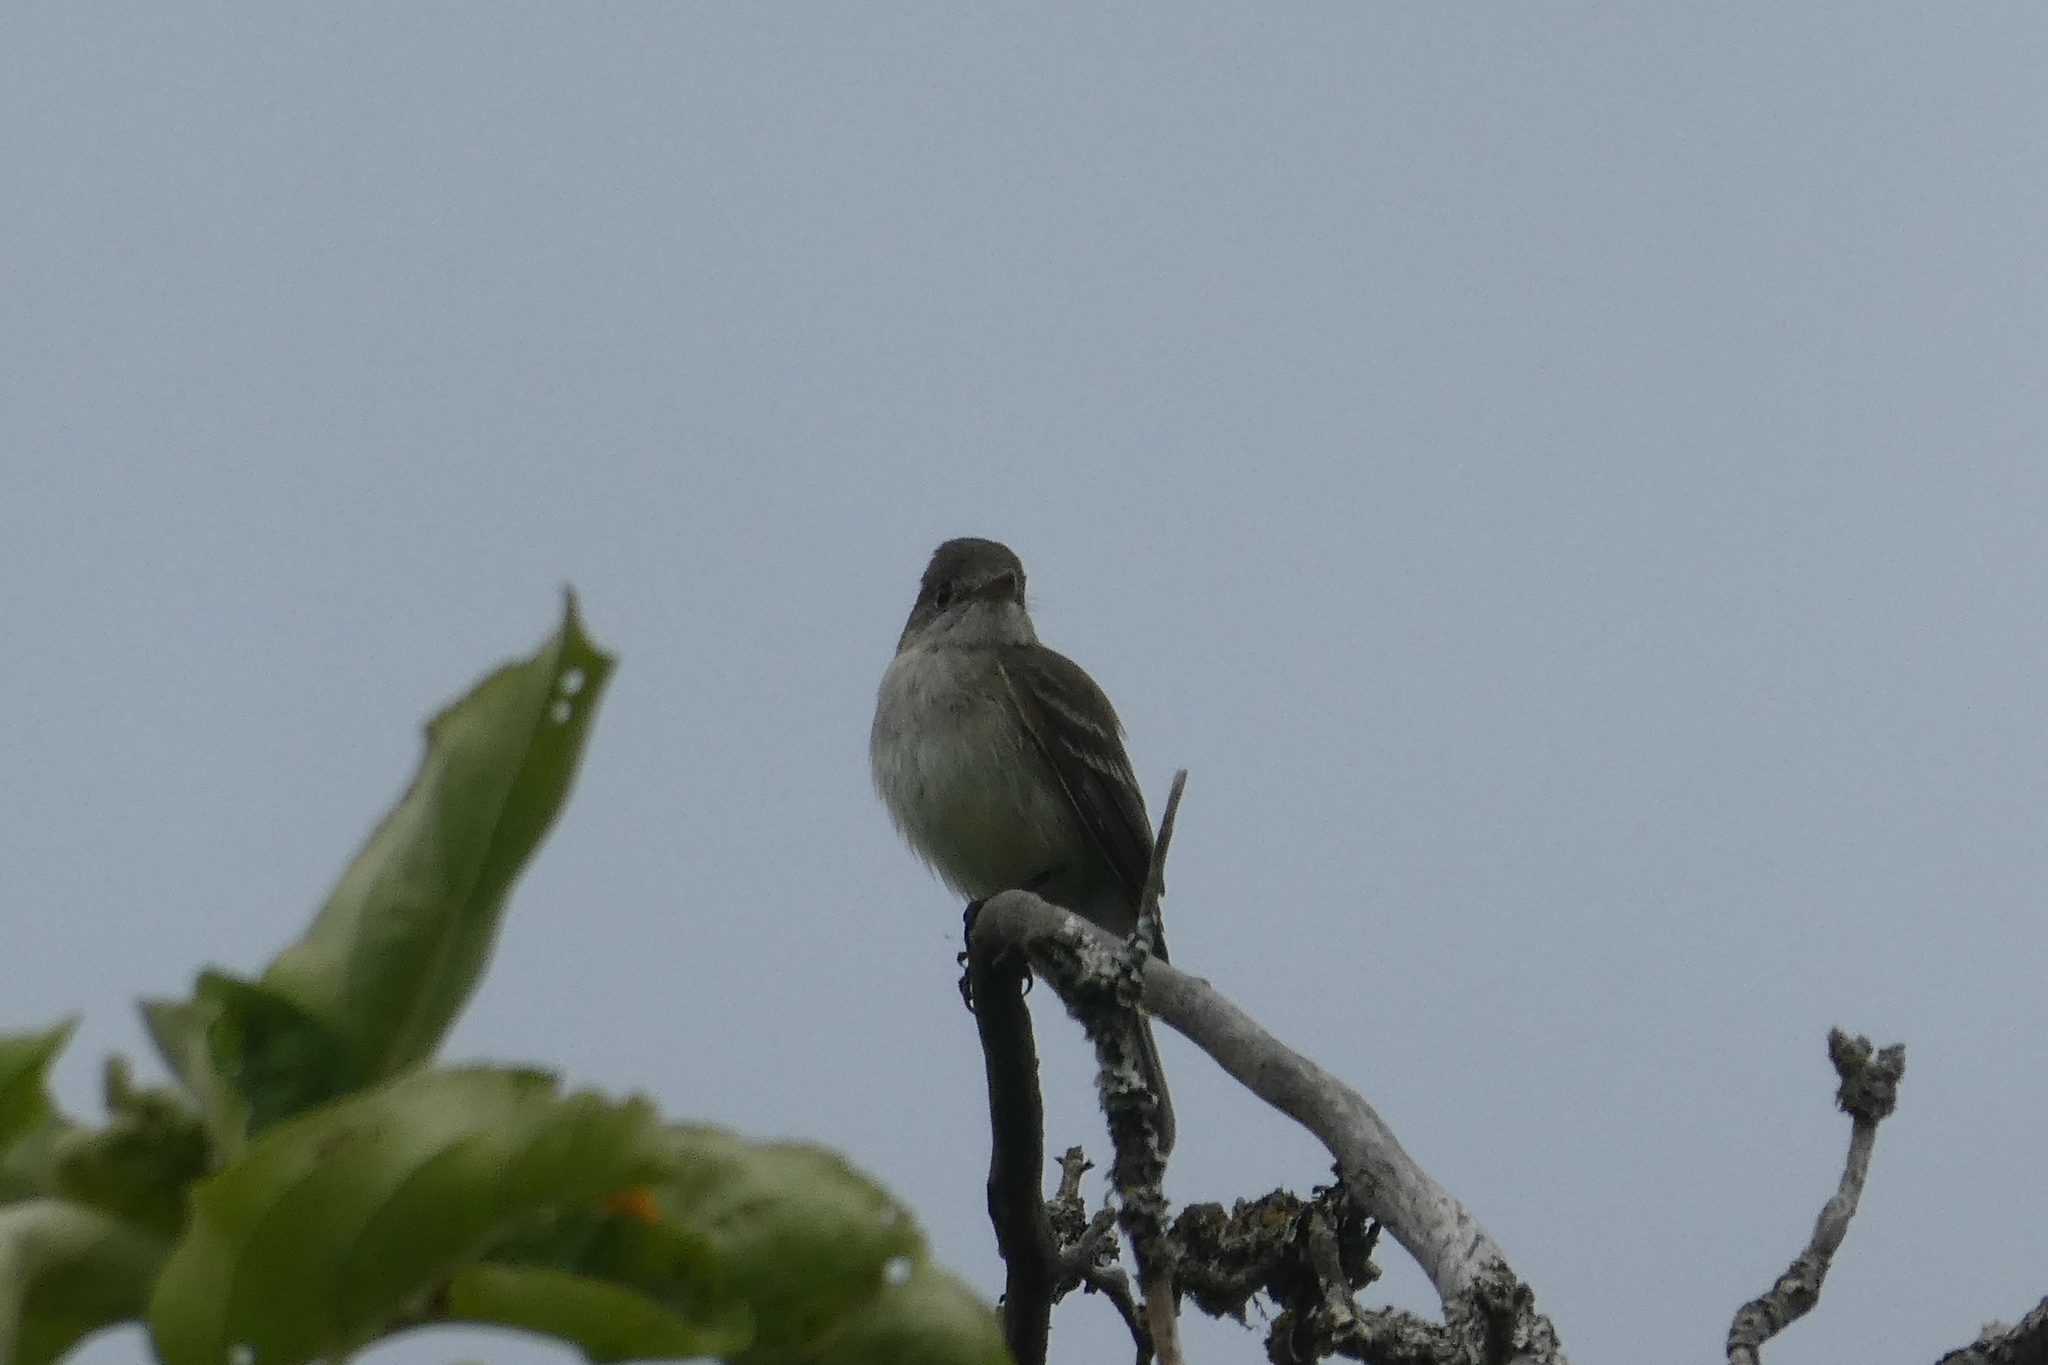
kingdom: Animalia
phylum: Chordata
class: Aves
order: Passeriformes
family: Tyrannidae
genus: Empidonax
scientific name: Empidonax
